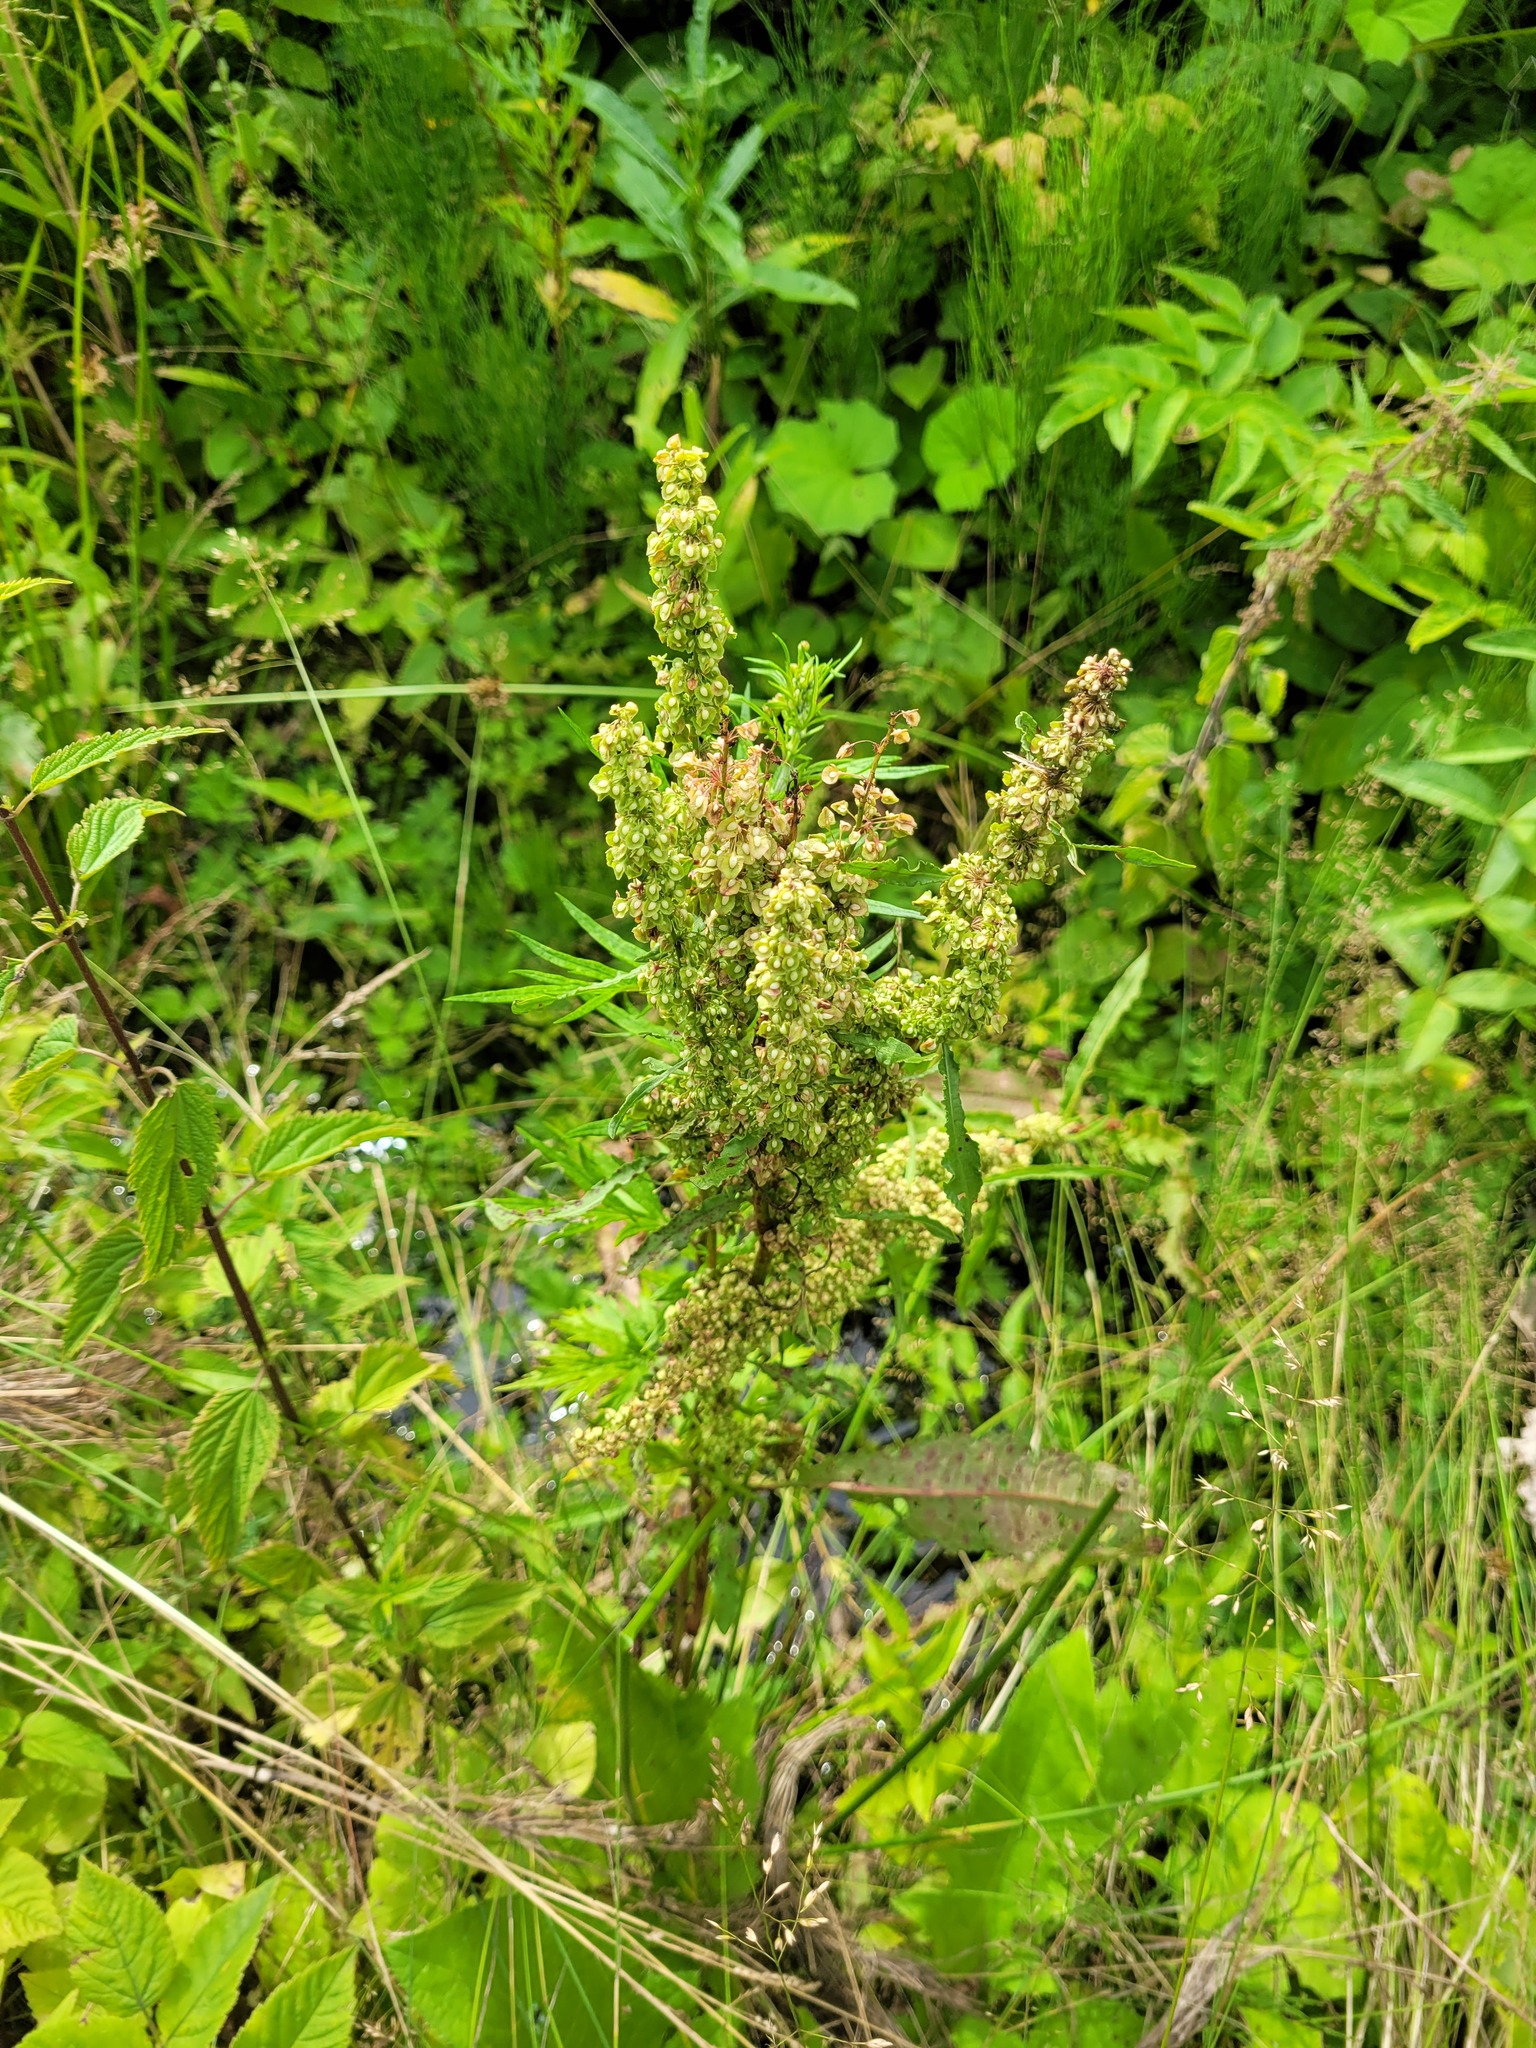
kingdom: Plantae
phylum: Tracheophyta
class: Magnoliopsida
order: Caryophyllales
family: Polygonaceae
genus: Rumex
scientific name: Rumex crispus
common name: Curled dock
